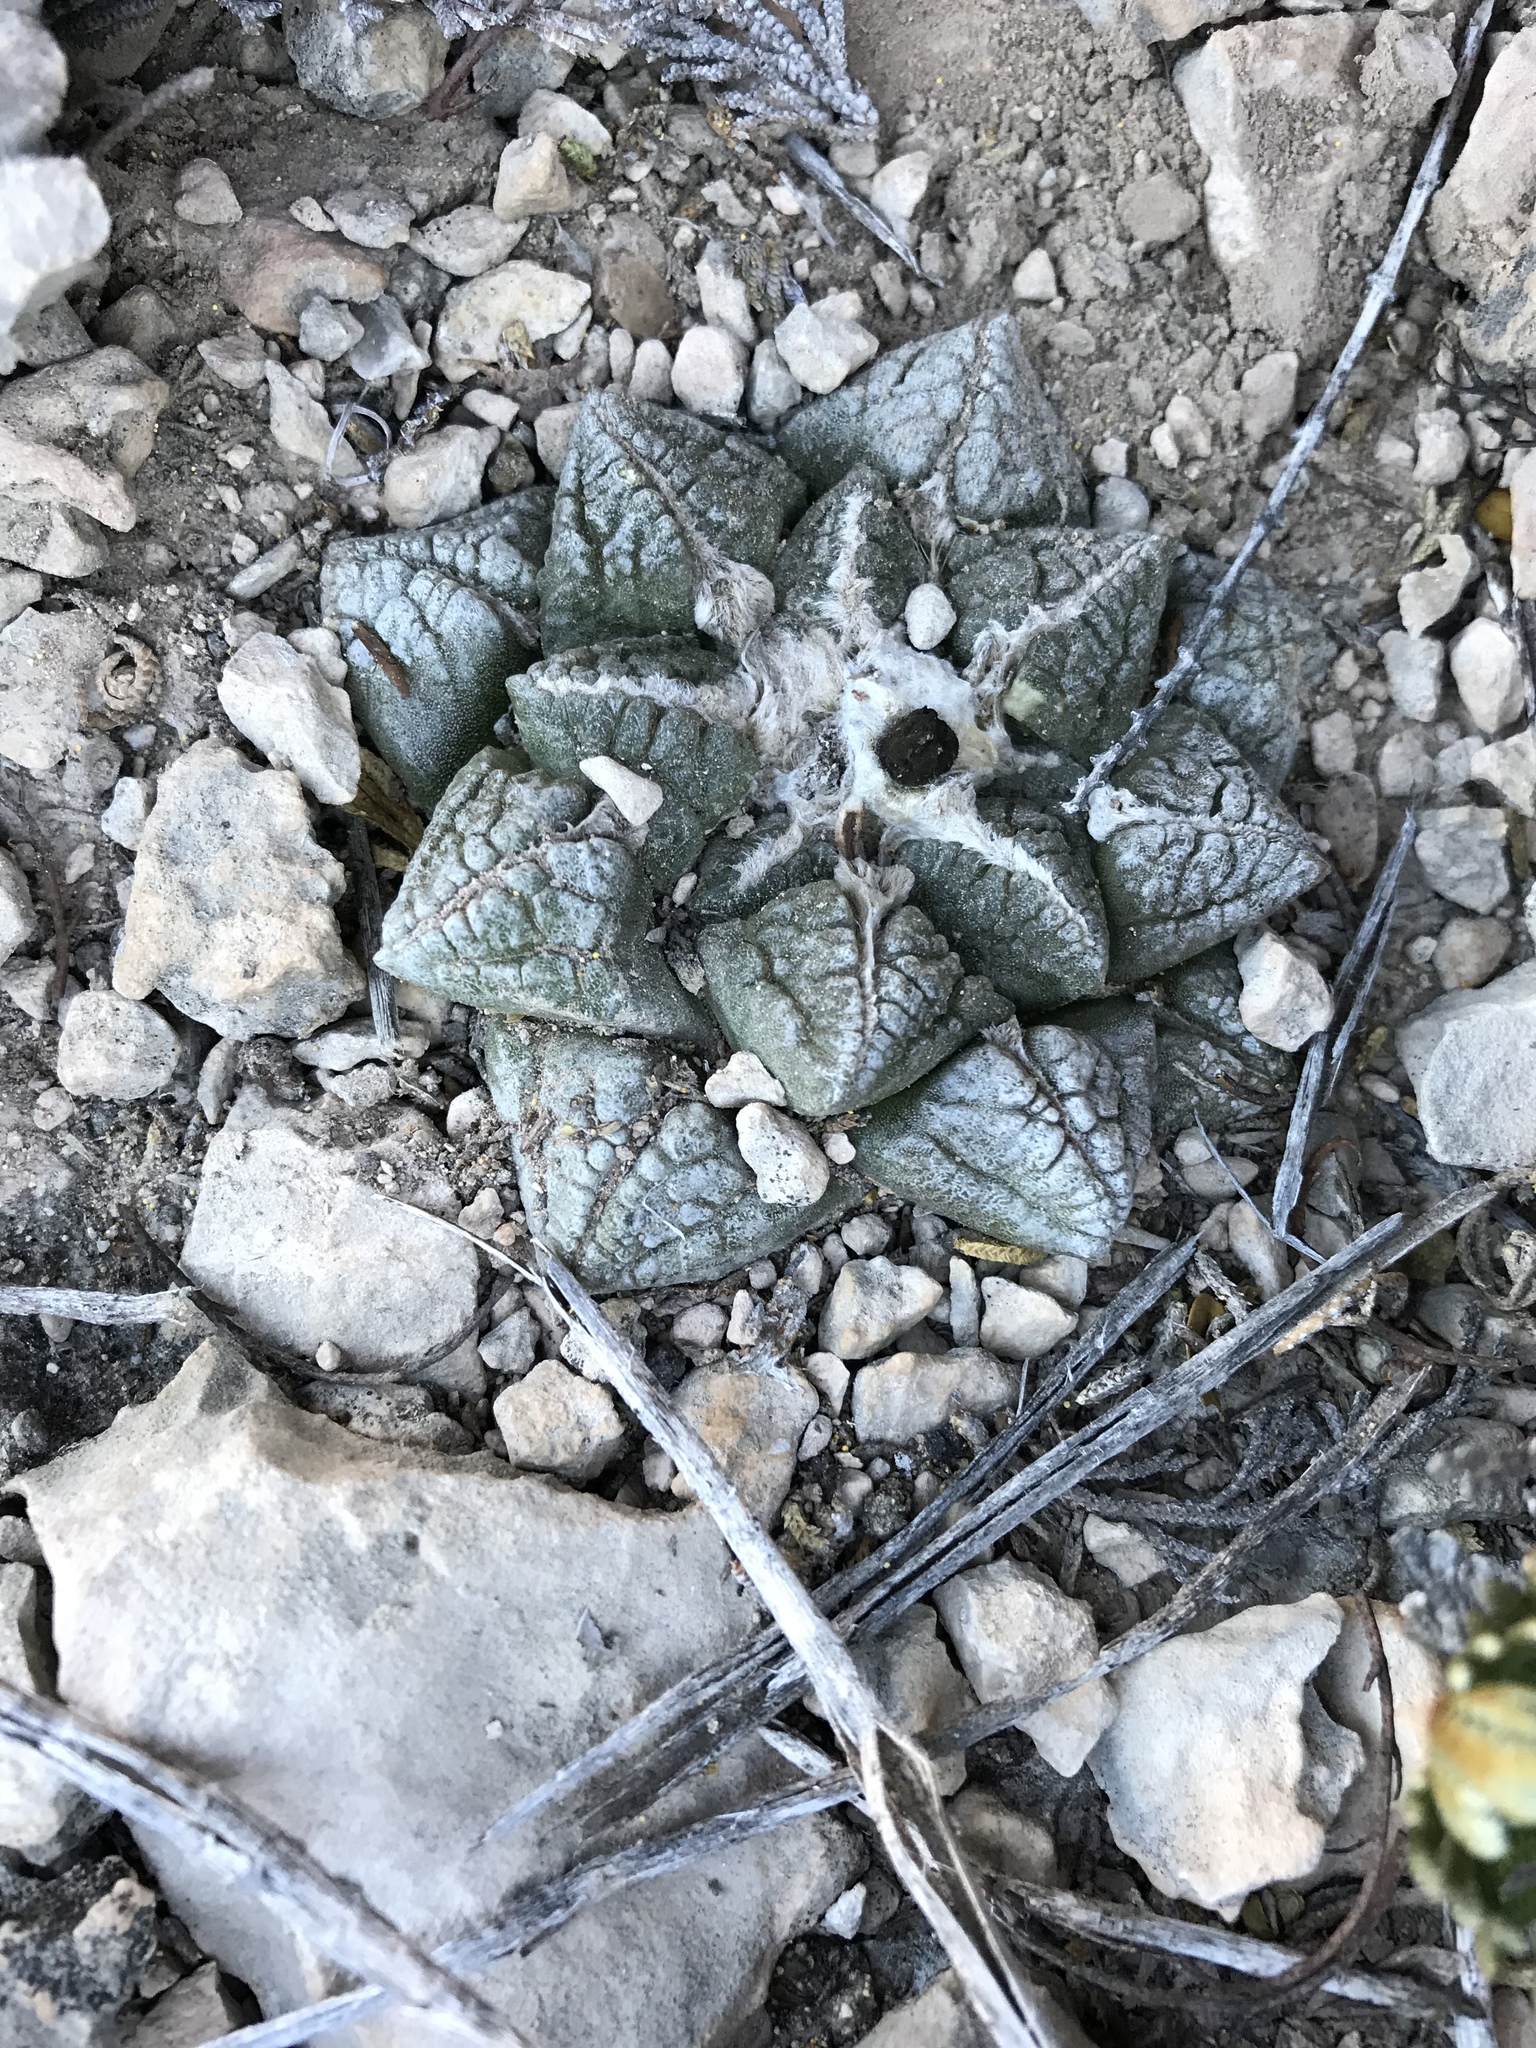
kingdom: Plantae
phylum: Tracheophyta
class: Magnoliopsida
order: Caryophyllales
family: Cactaceae
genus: Ariocarpus
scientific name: Ariocarpus fissuratus
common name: Chautle-living rock
